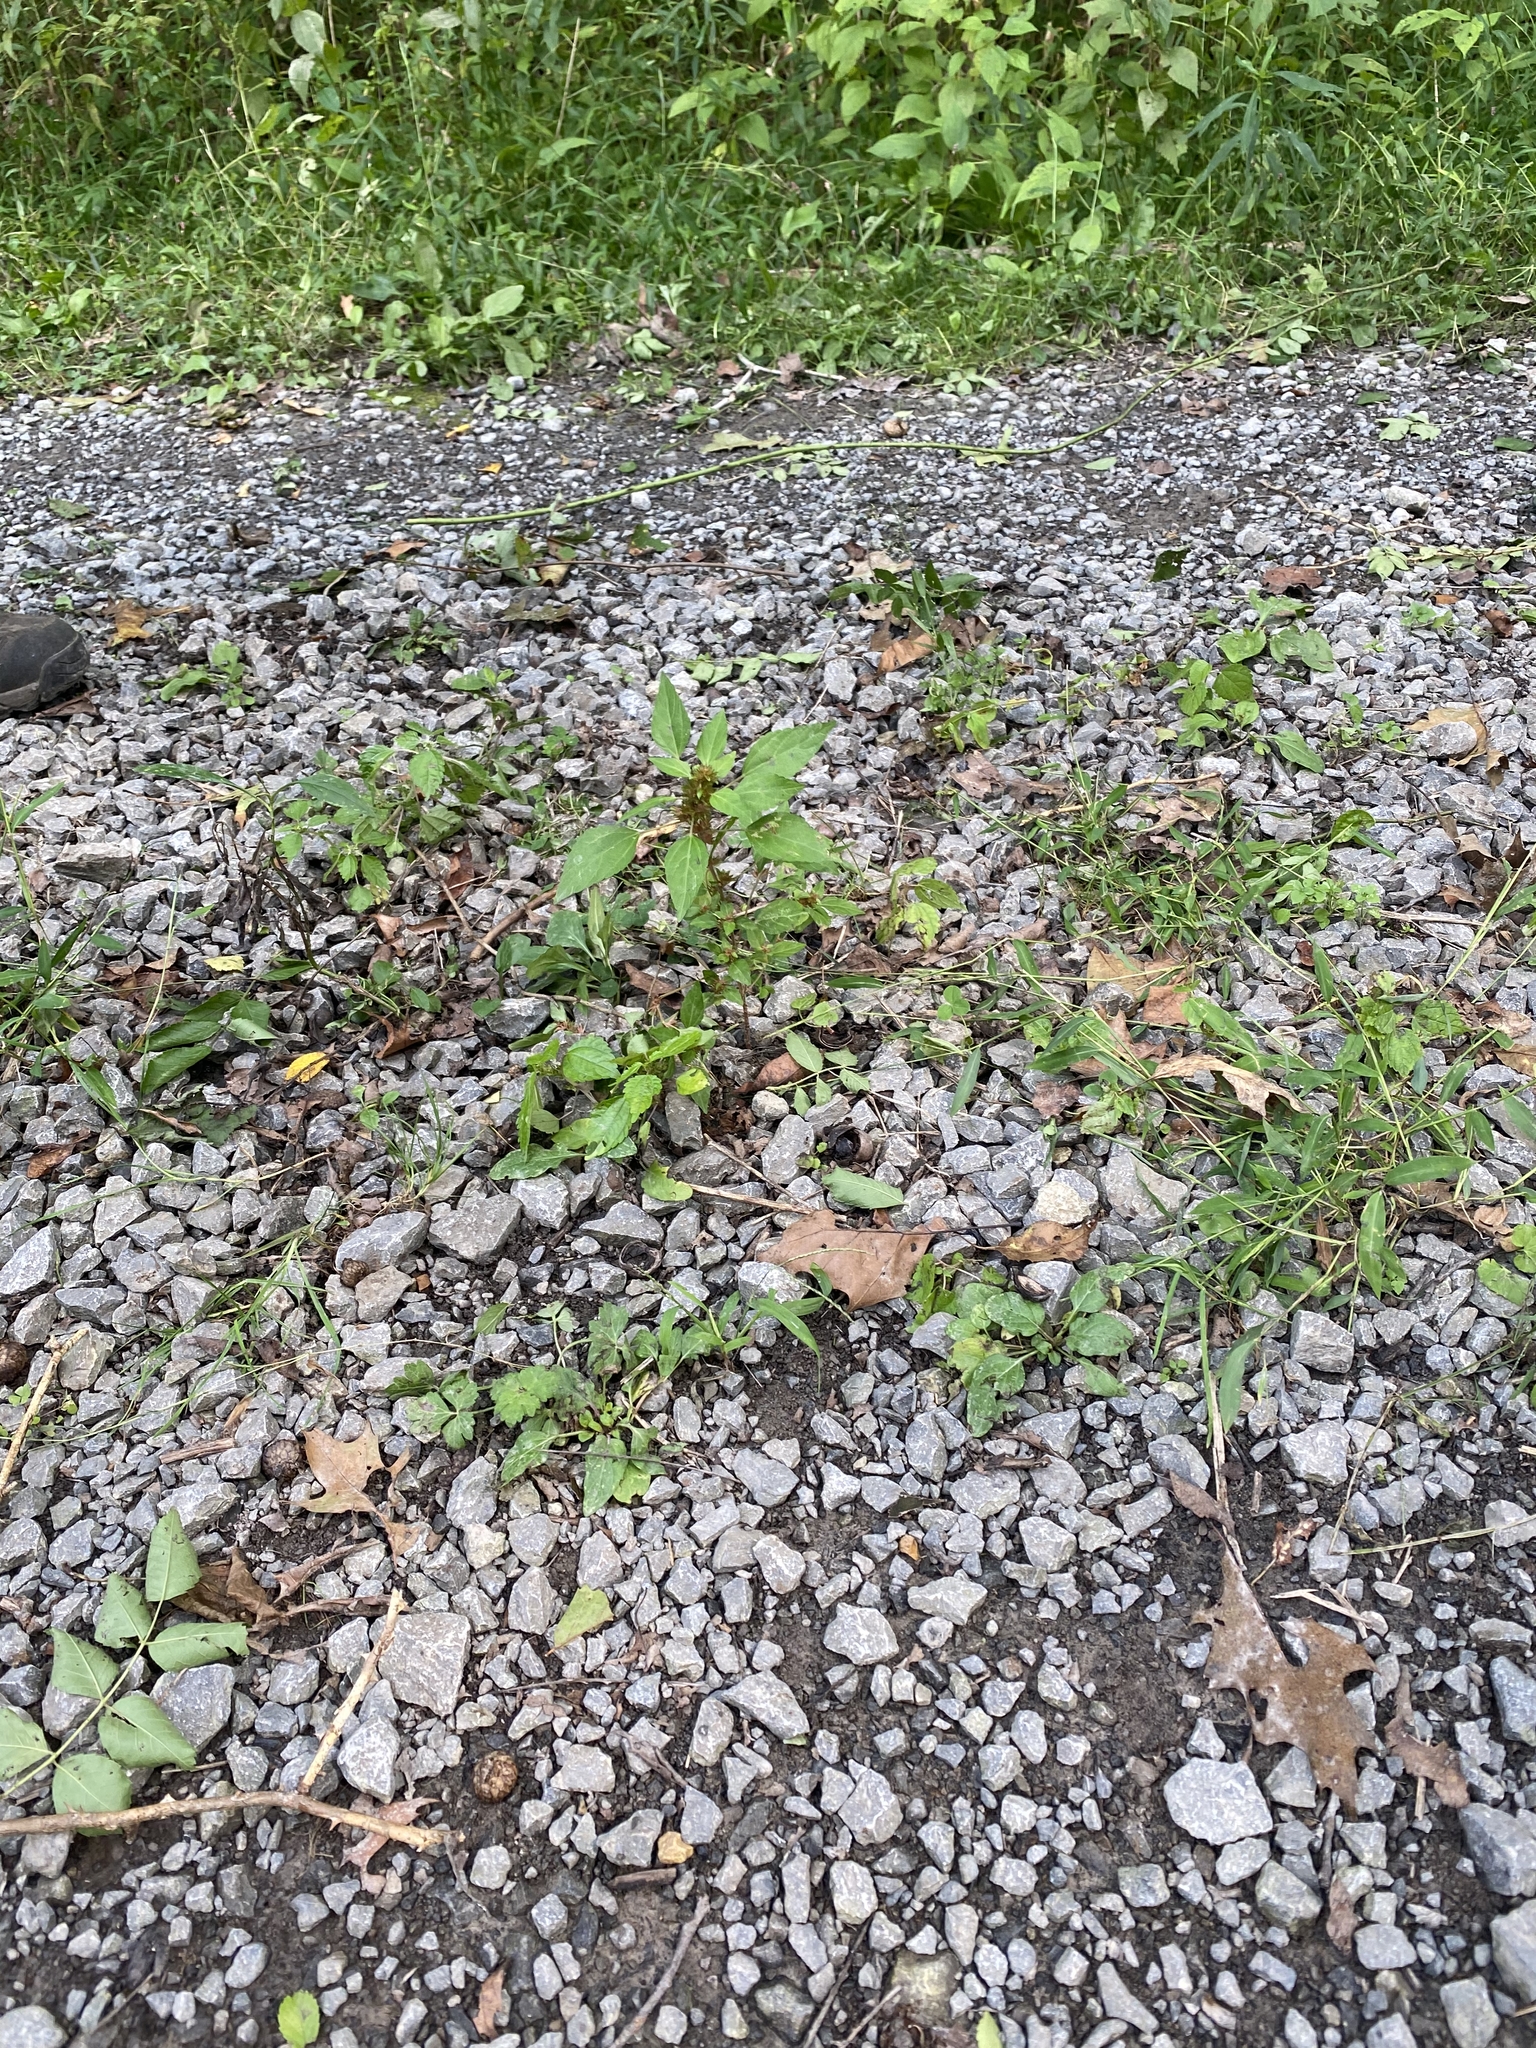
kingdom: Plantae
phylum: Tracheophyta
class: Magnoliopsida
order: Malpighiales
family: Euphorbiaceae
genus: Acalypha
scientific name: Acalypha rhomboidea
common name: Rhombic copperleaf
